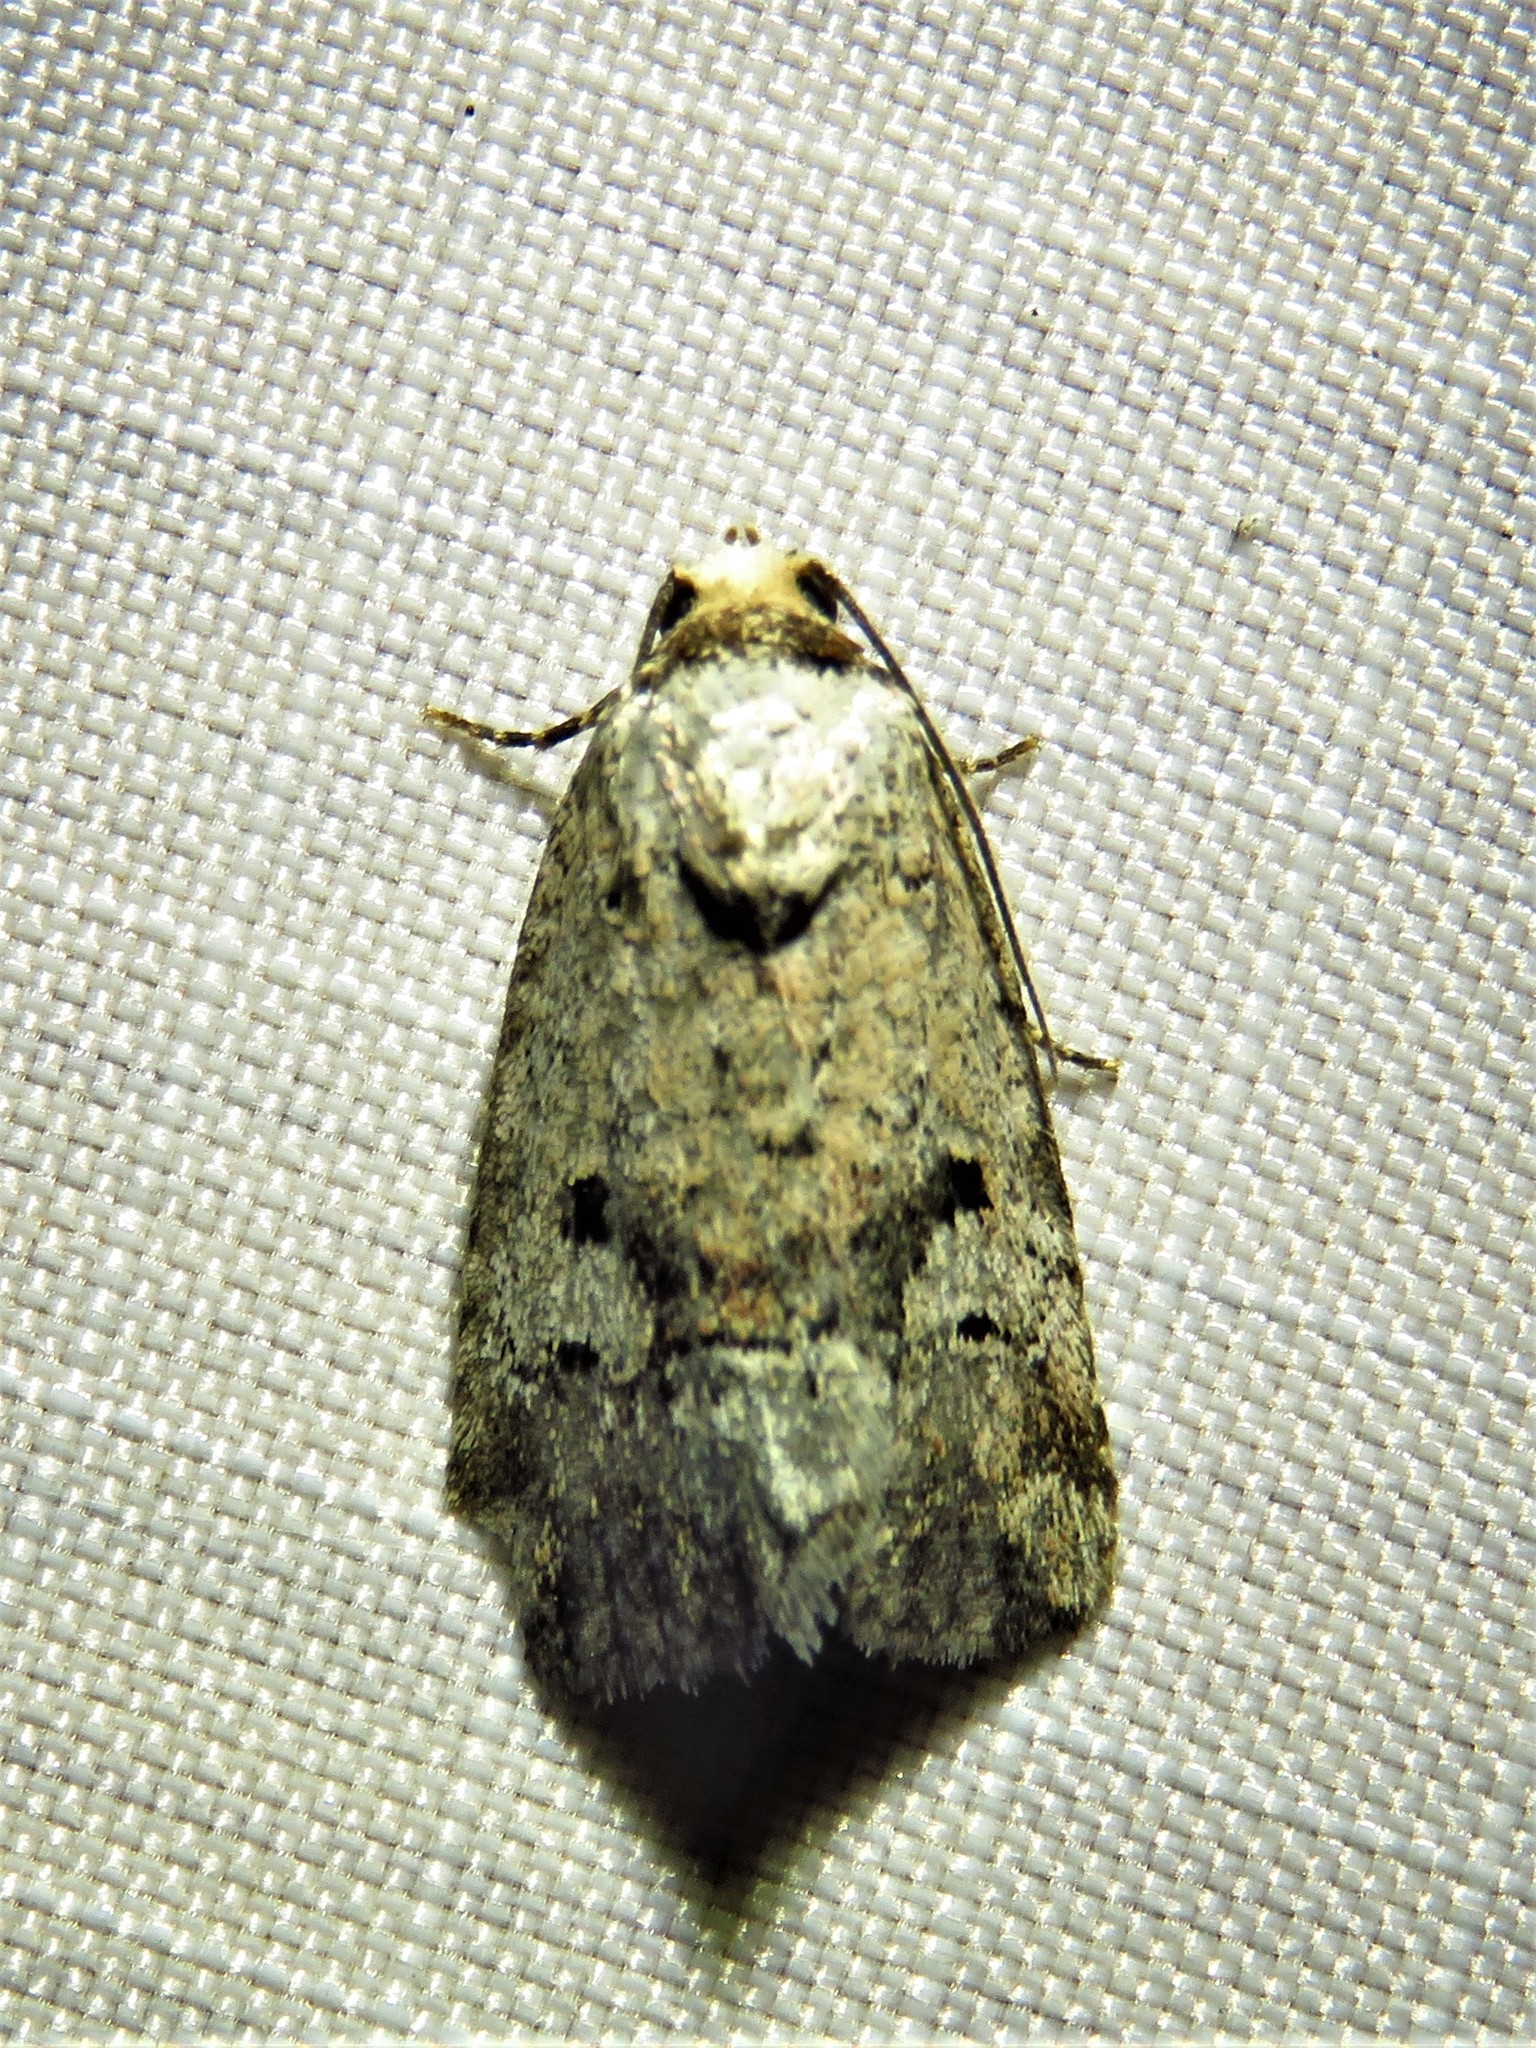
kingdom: Animalia
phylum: Arthropoda
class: Insecta
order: Lepidoptera
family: Noctuidae
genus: Elaphria
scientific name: Elaphria festivoides
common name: Festive midget
